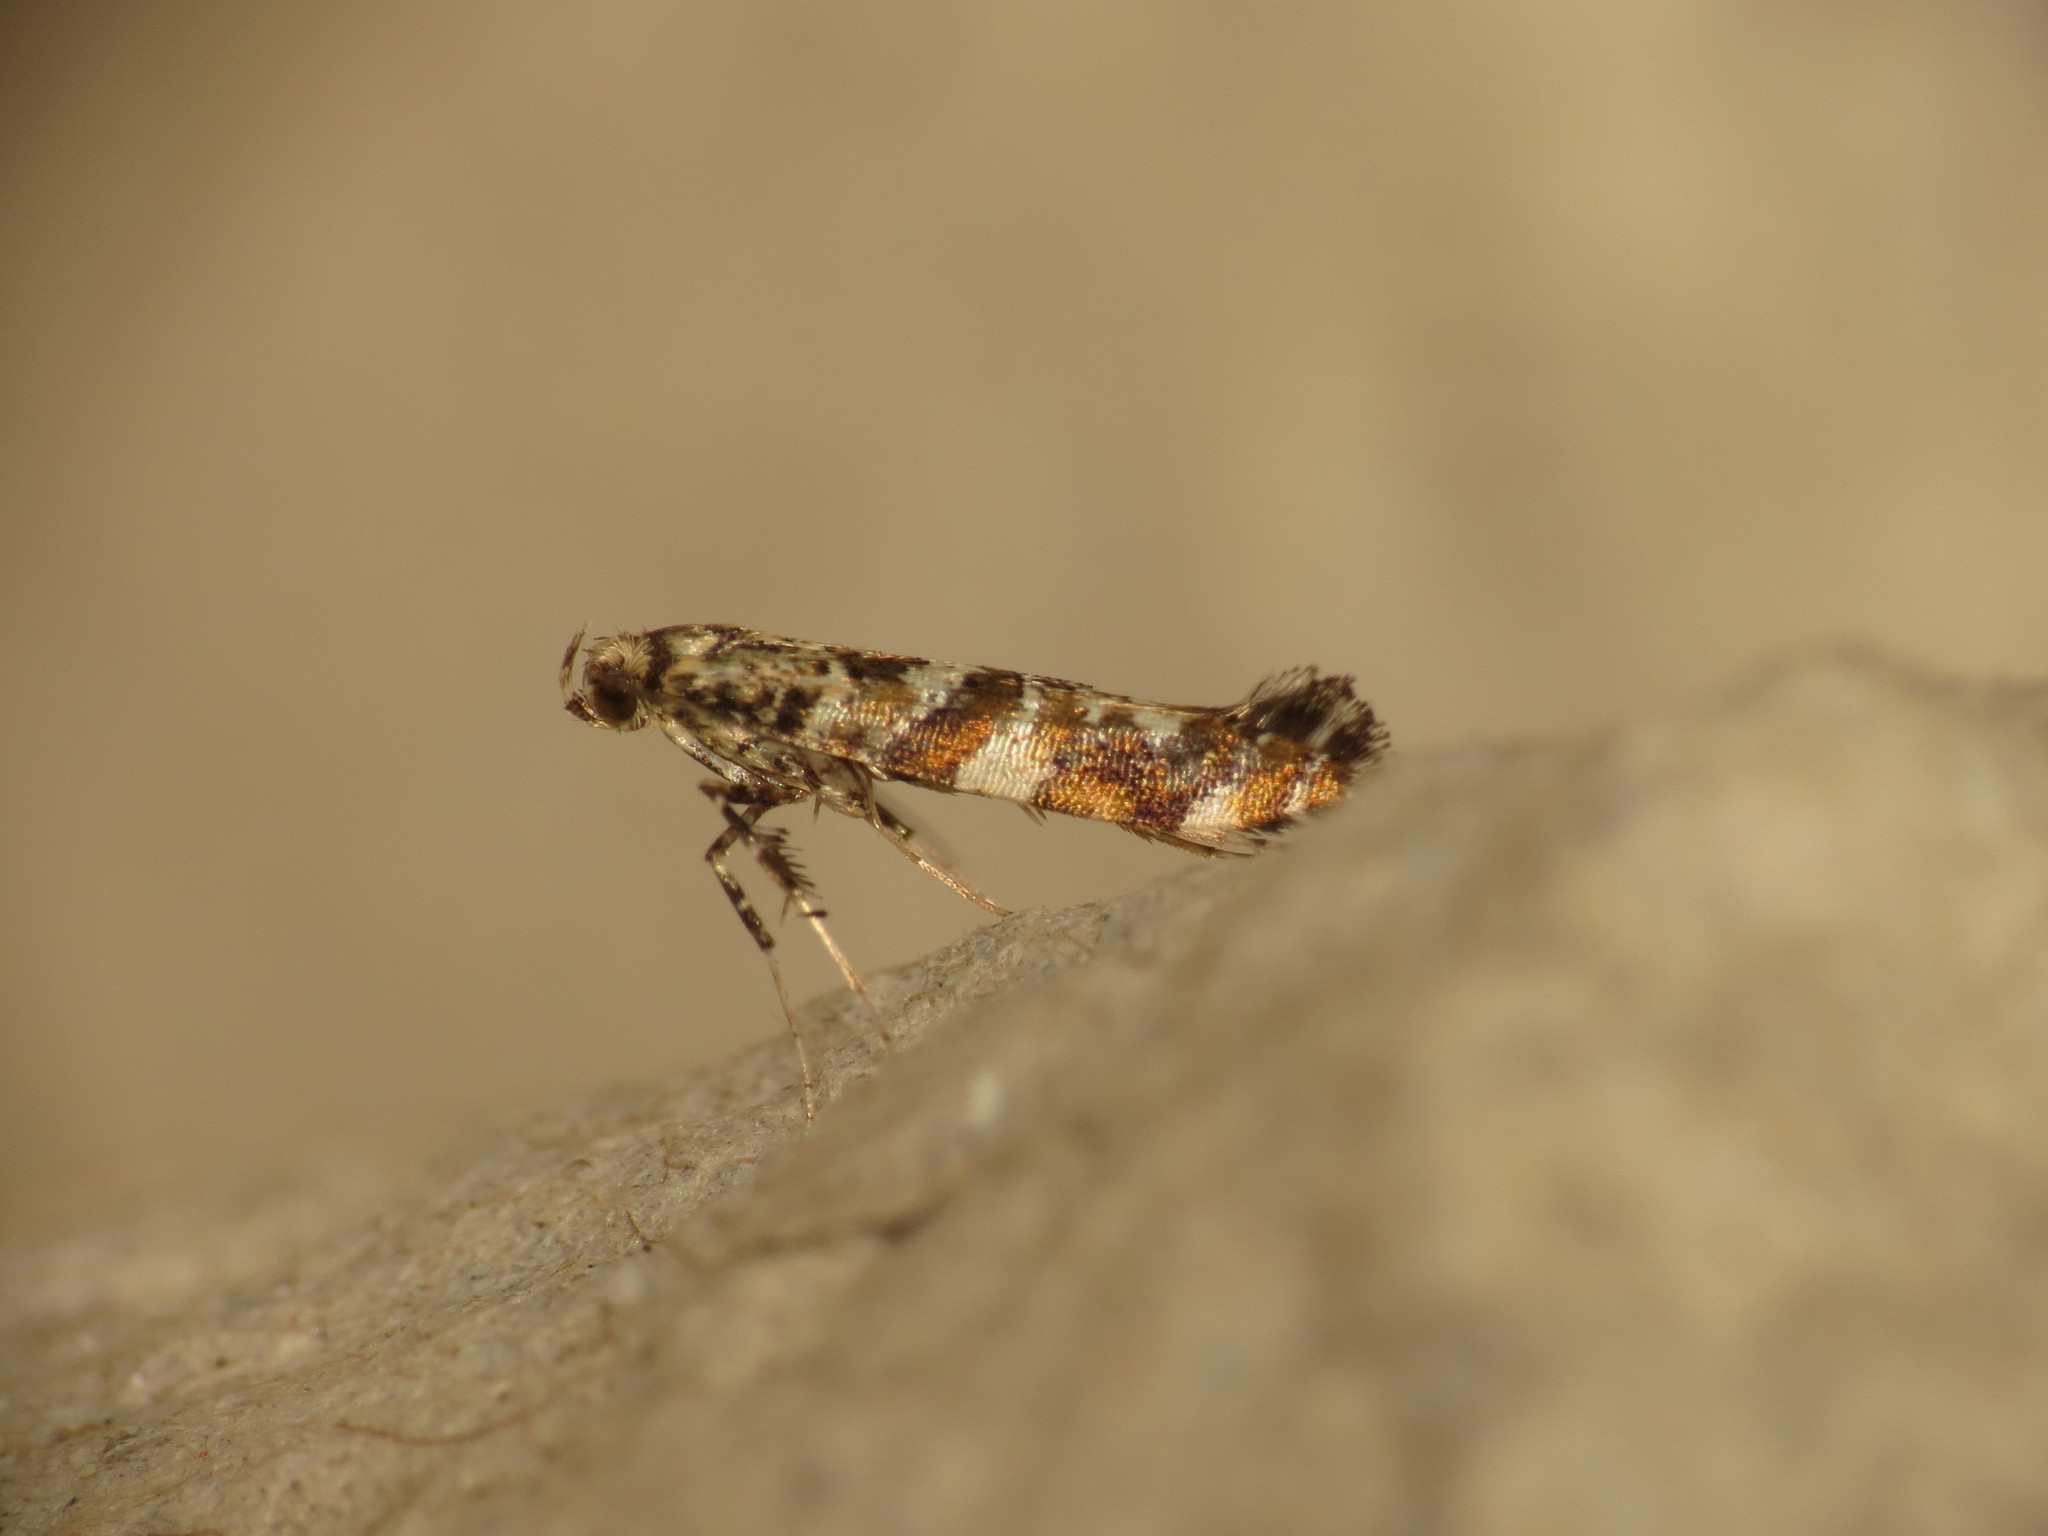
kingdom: Animalia
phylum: Arthropoda
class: Insecta
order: Lepidoptera
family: Gracillariidae
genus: Gracillaria
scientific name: Gracillaria syringella
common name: Common slender
